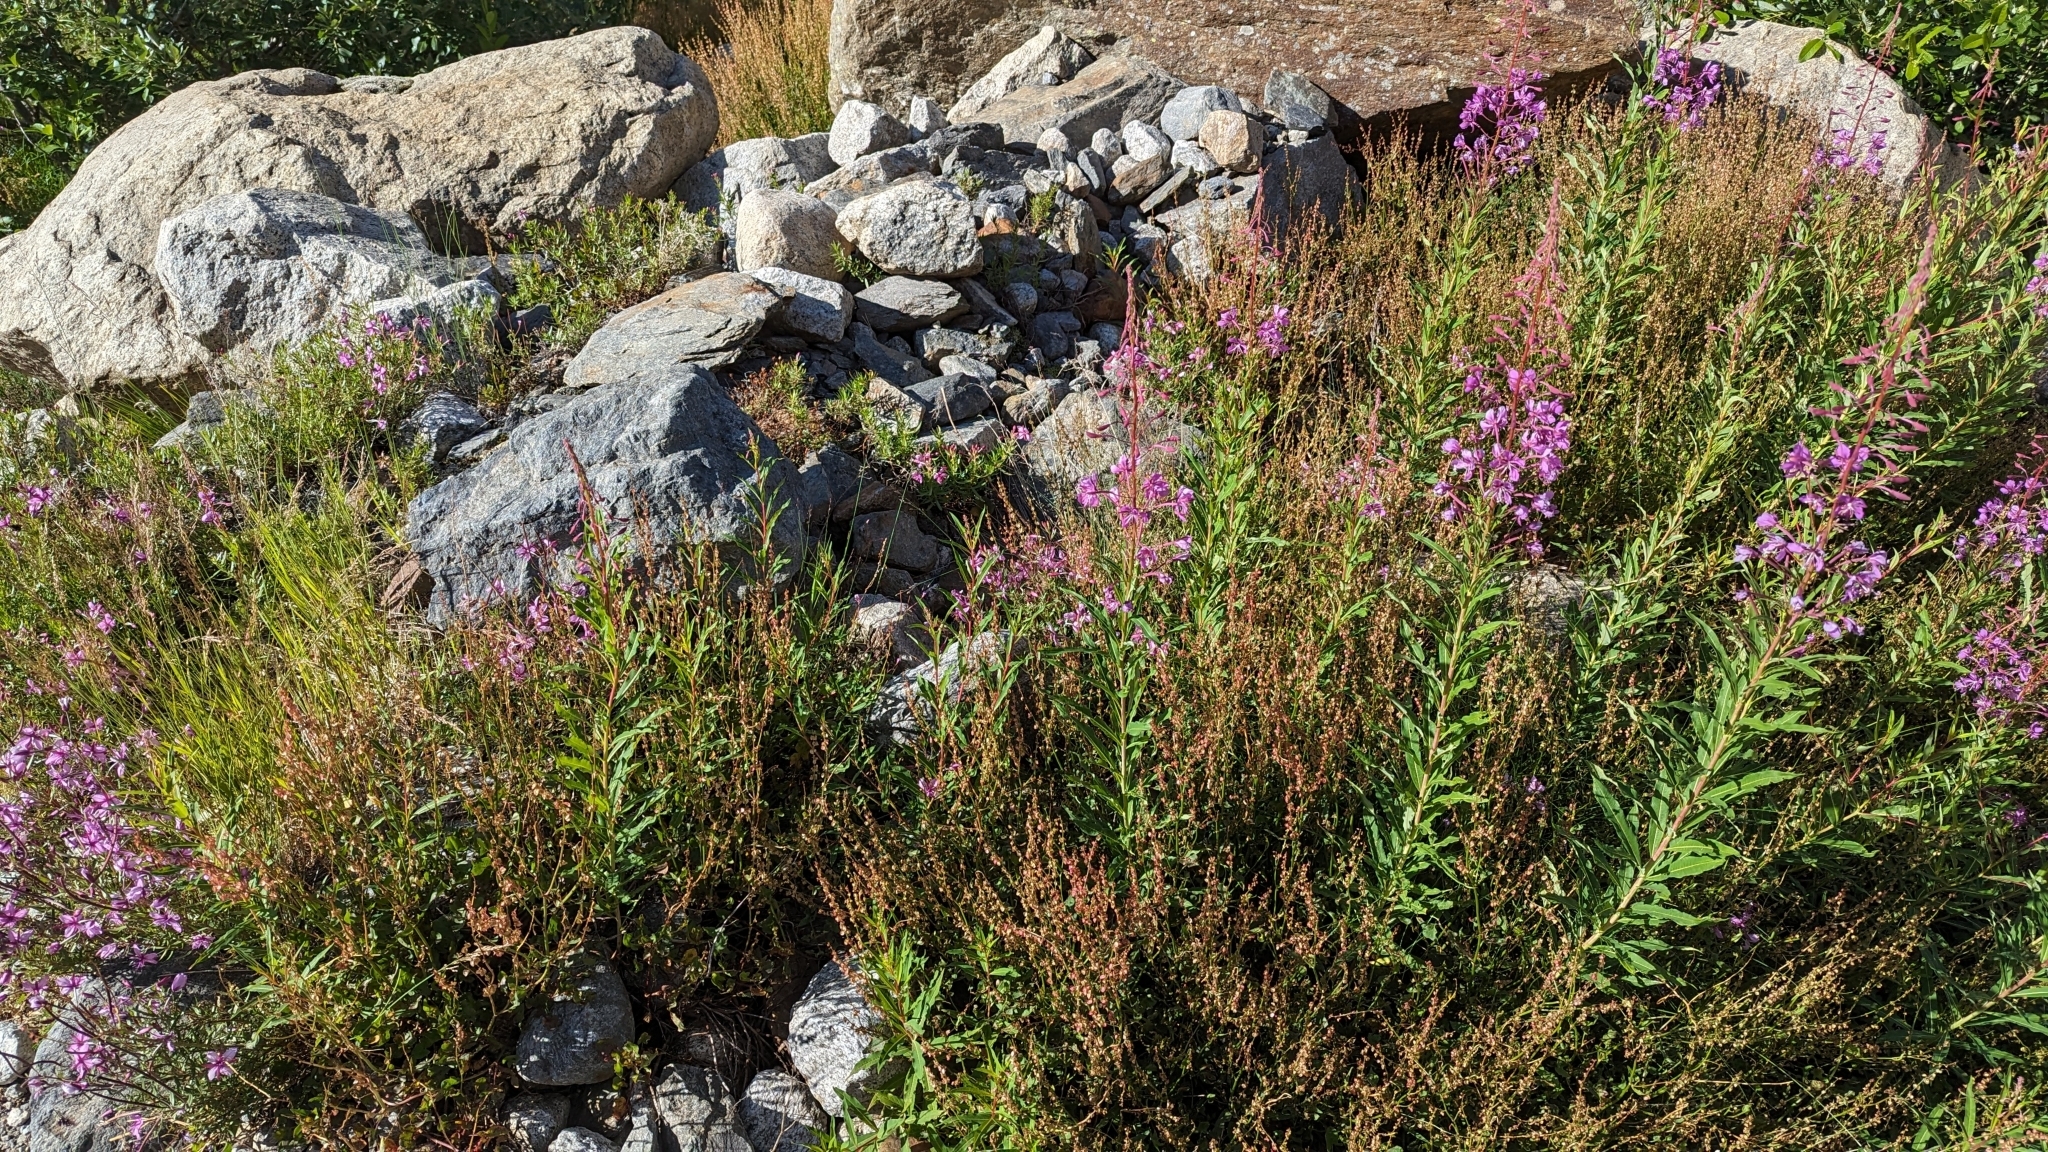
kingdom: Plantae
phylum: Tracheophyta
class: Magnoliopsida
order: Myrtales
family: Onagraceae
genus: Chamaenerion
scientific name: Chamaenerion angustifolium
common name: Fireweed
